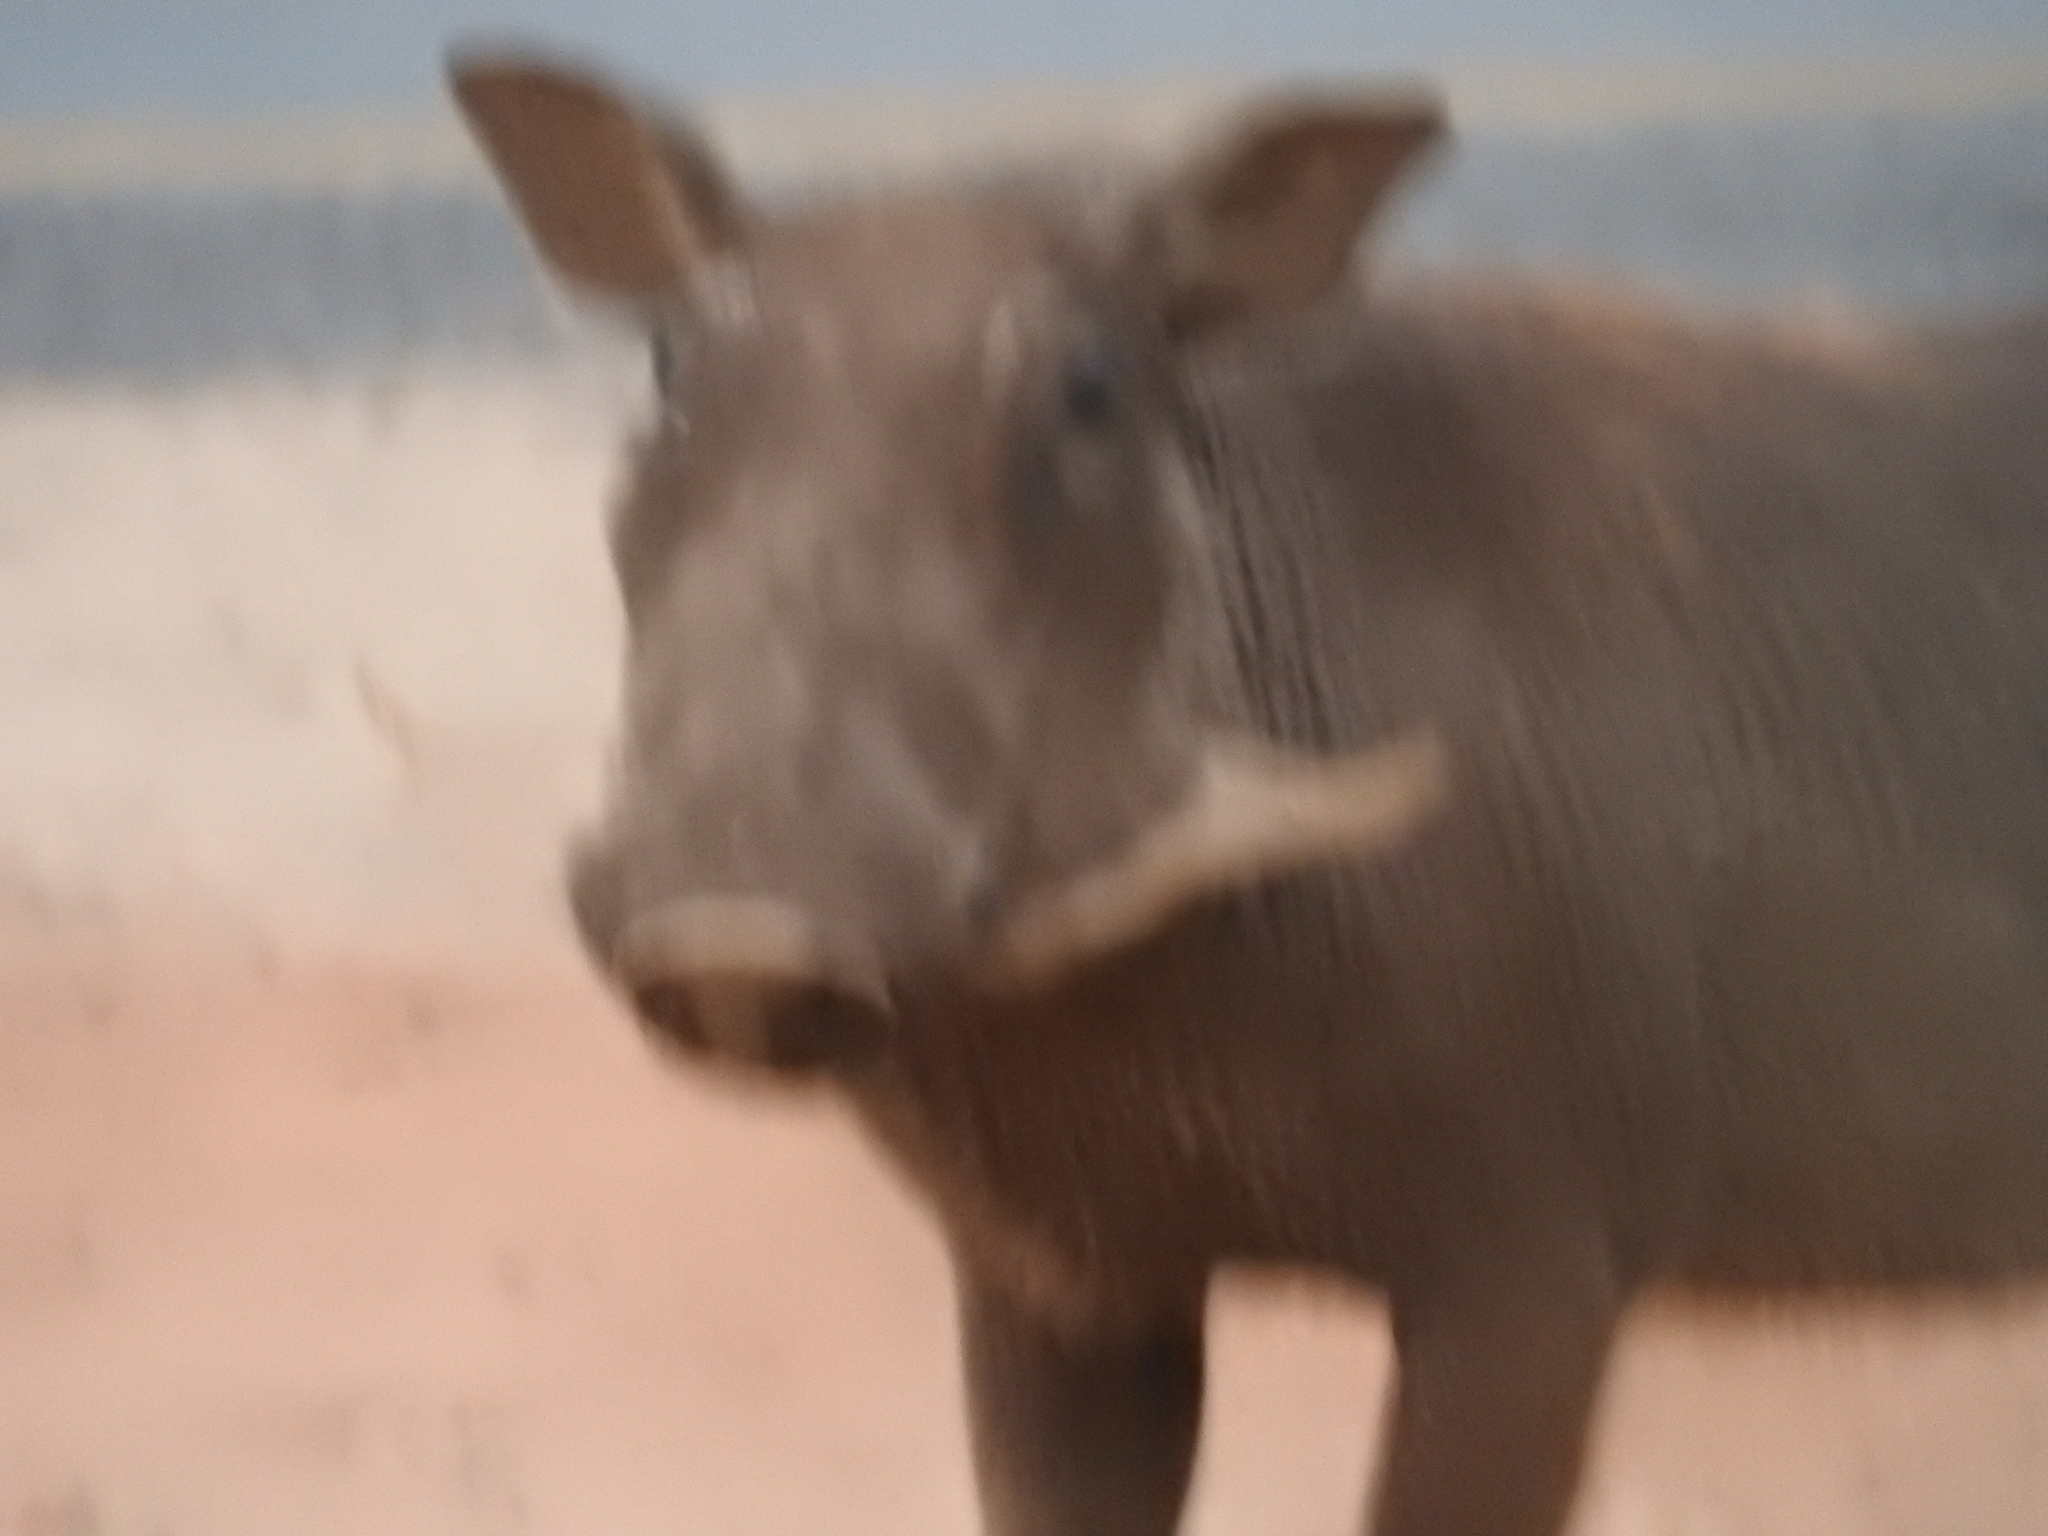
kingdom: Animalia
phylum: Chordata
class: Mammalia
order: Artiodactyla
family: Suidae
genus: Phacochoerus
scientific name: Phacochoerus africanus
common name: Common warthog
